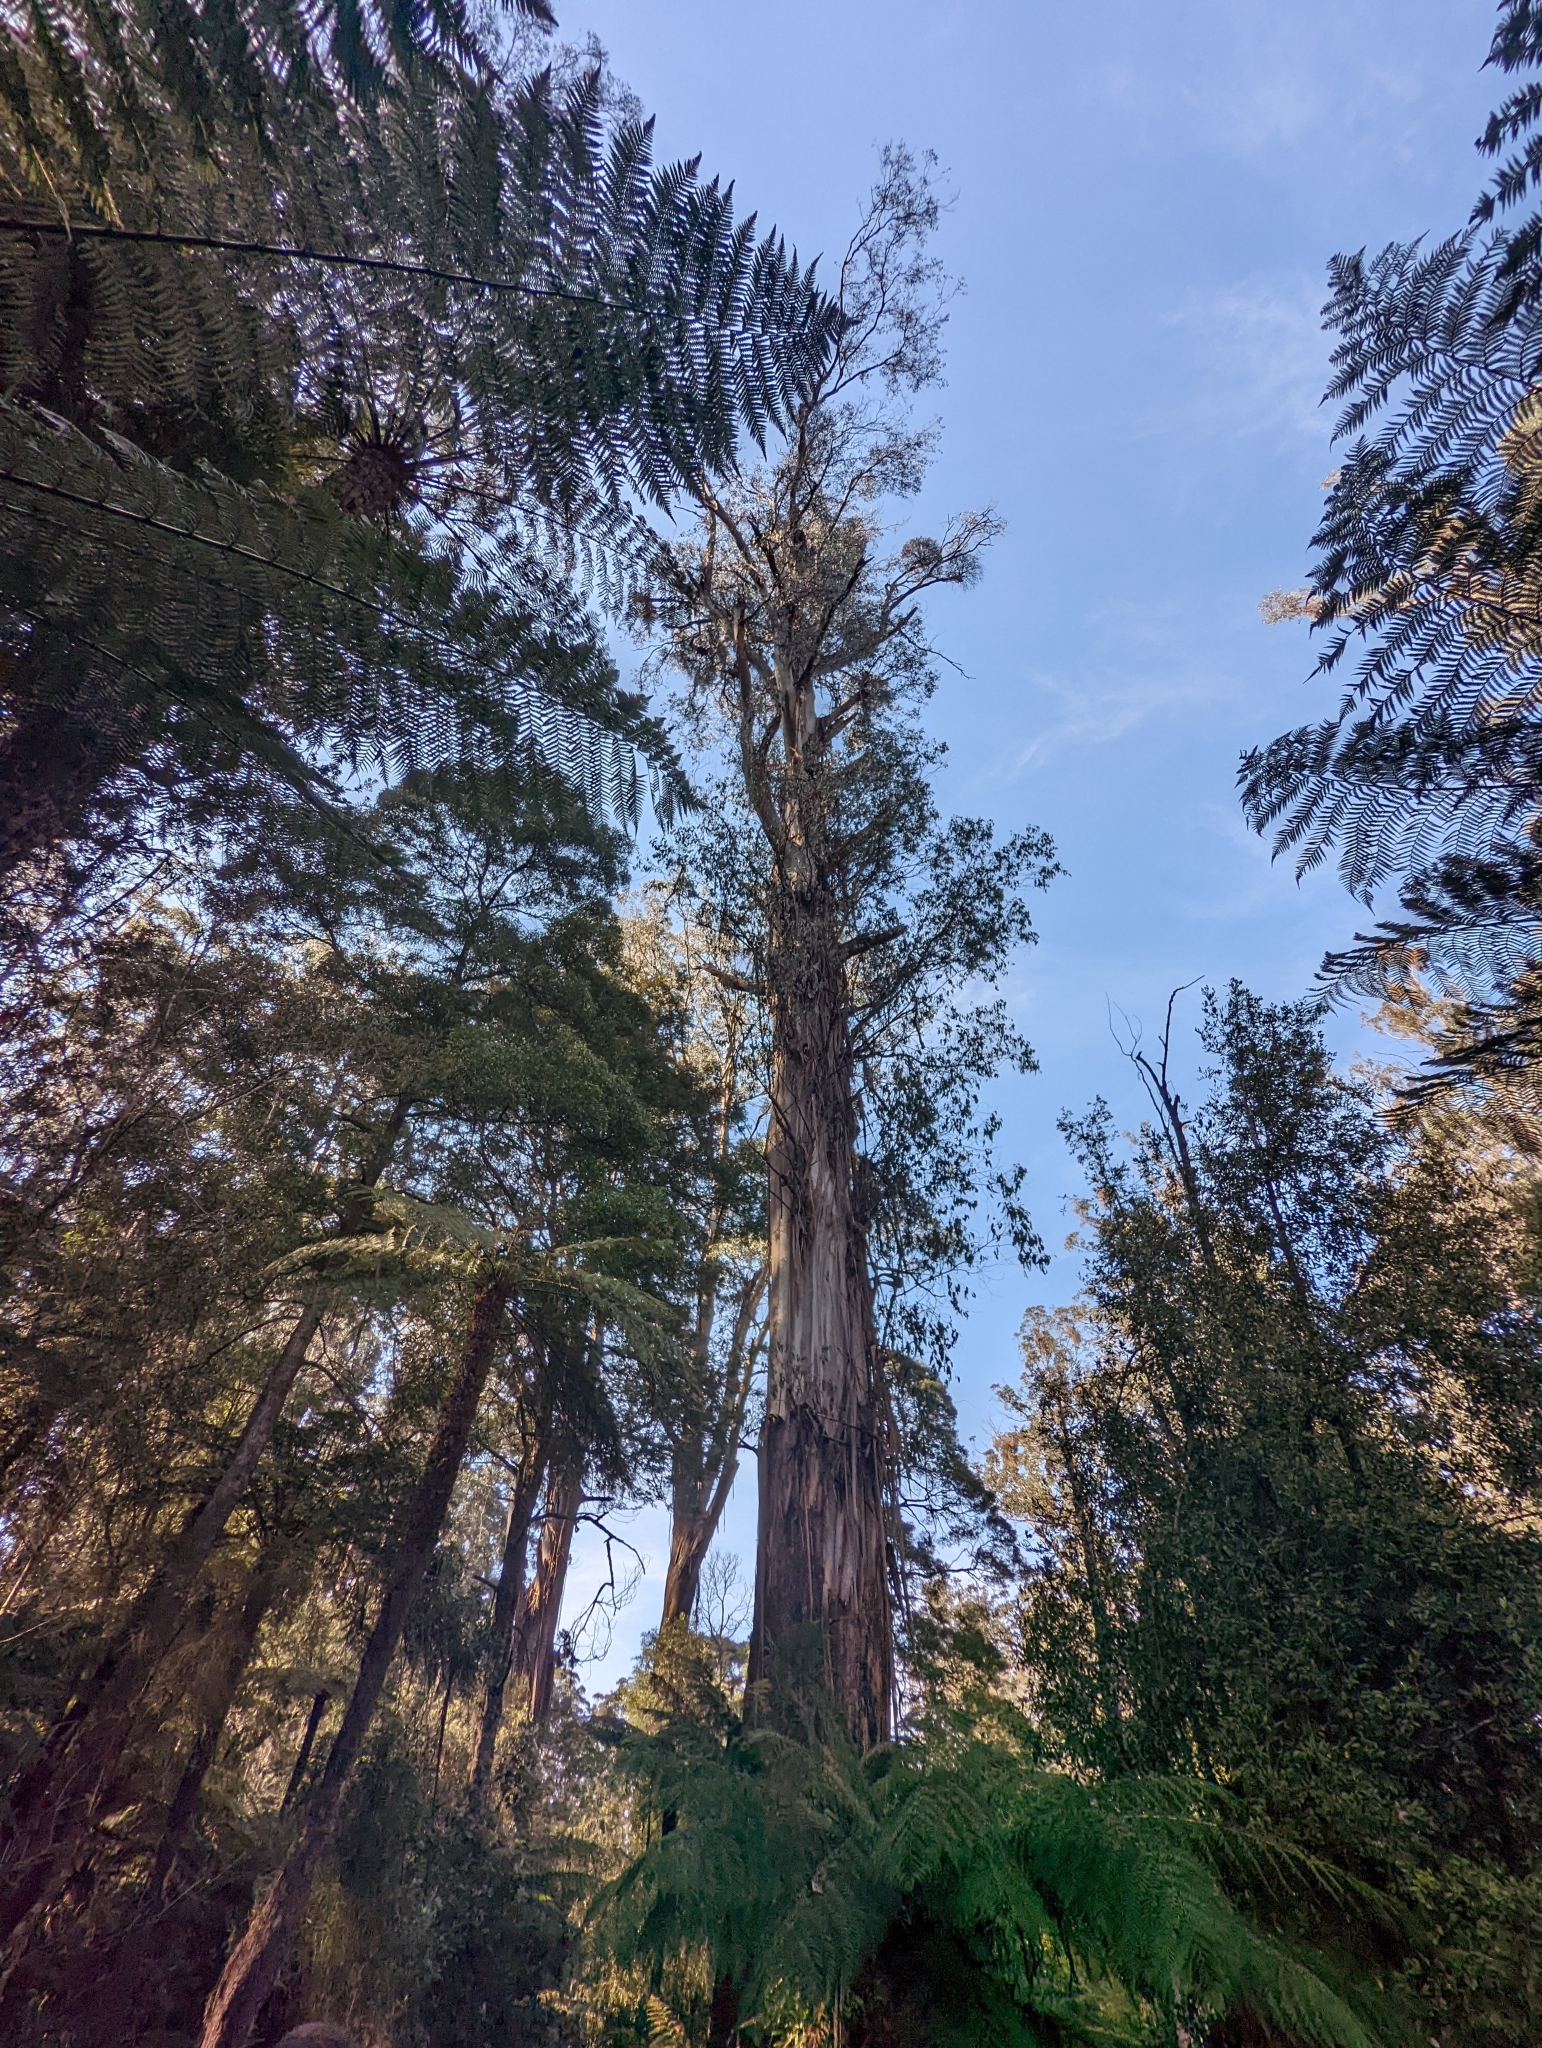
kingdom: Plantae
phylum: Tracheophyta
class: Magnoliopsida
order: Myrtales
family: Myrtaceae
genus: Eucalyptus
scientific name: Eucalyptus regnans
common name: Stringy gum
